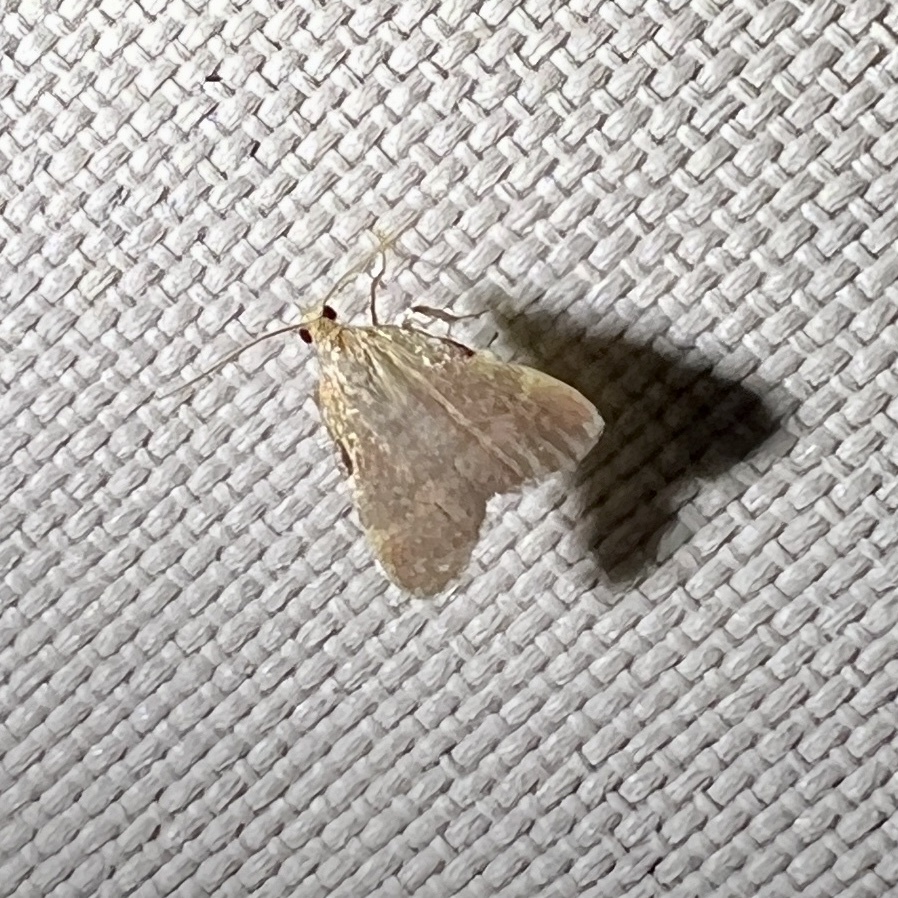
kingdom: Animalia
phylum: Arthropoda
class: Insecta
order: Lepidoptera
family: Pyralidae
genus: Condylolomia
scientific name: Condylolomia participialis
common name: Drab condylolomia moth
